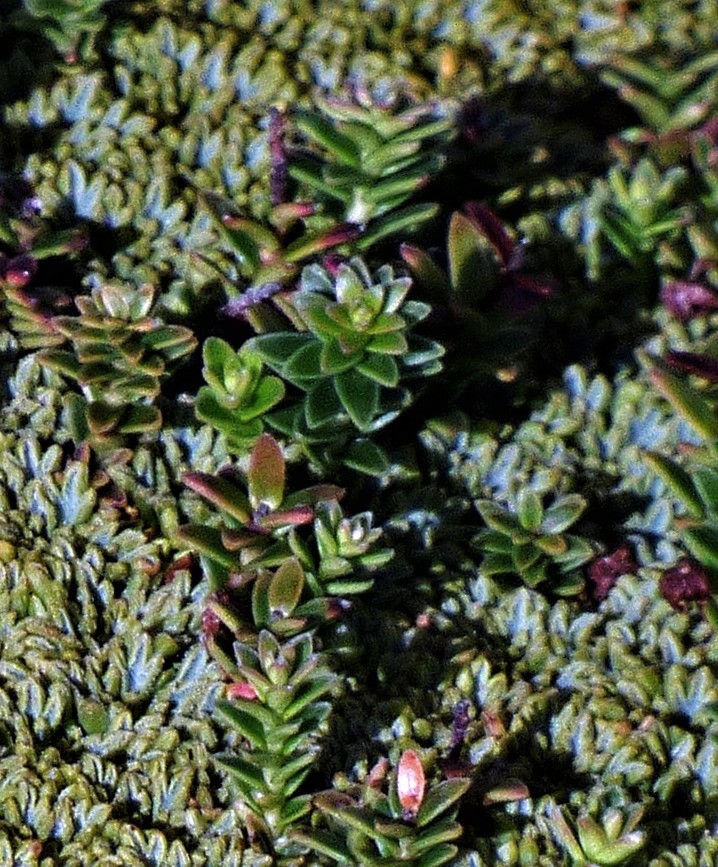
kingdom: Plantae
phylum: Tracheophyta
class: Magnoliopsida
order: Ericales
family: Ericaceae
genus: Gaultheria
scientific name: Gaultheria pumila
